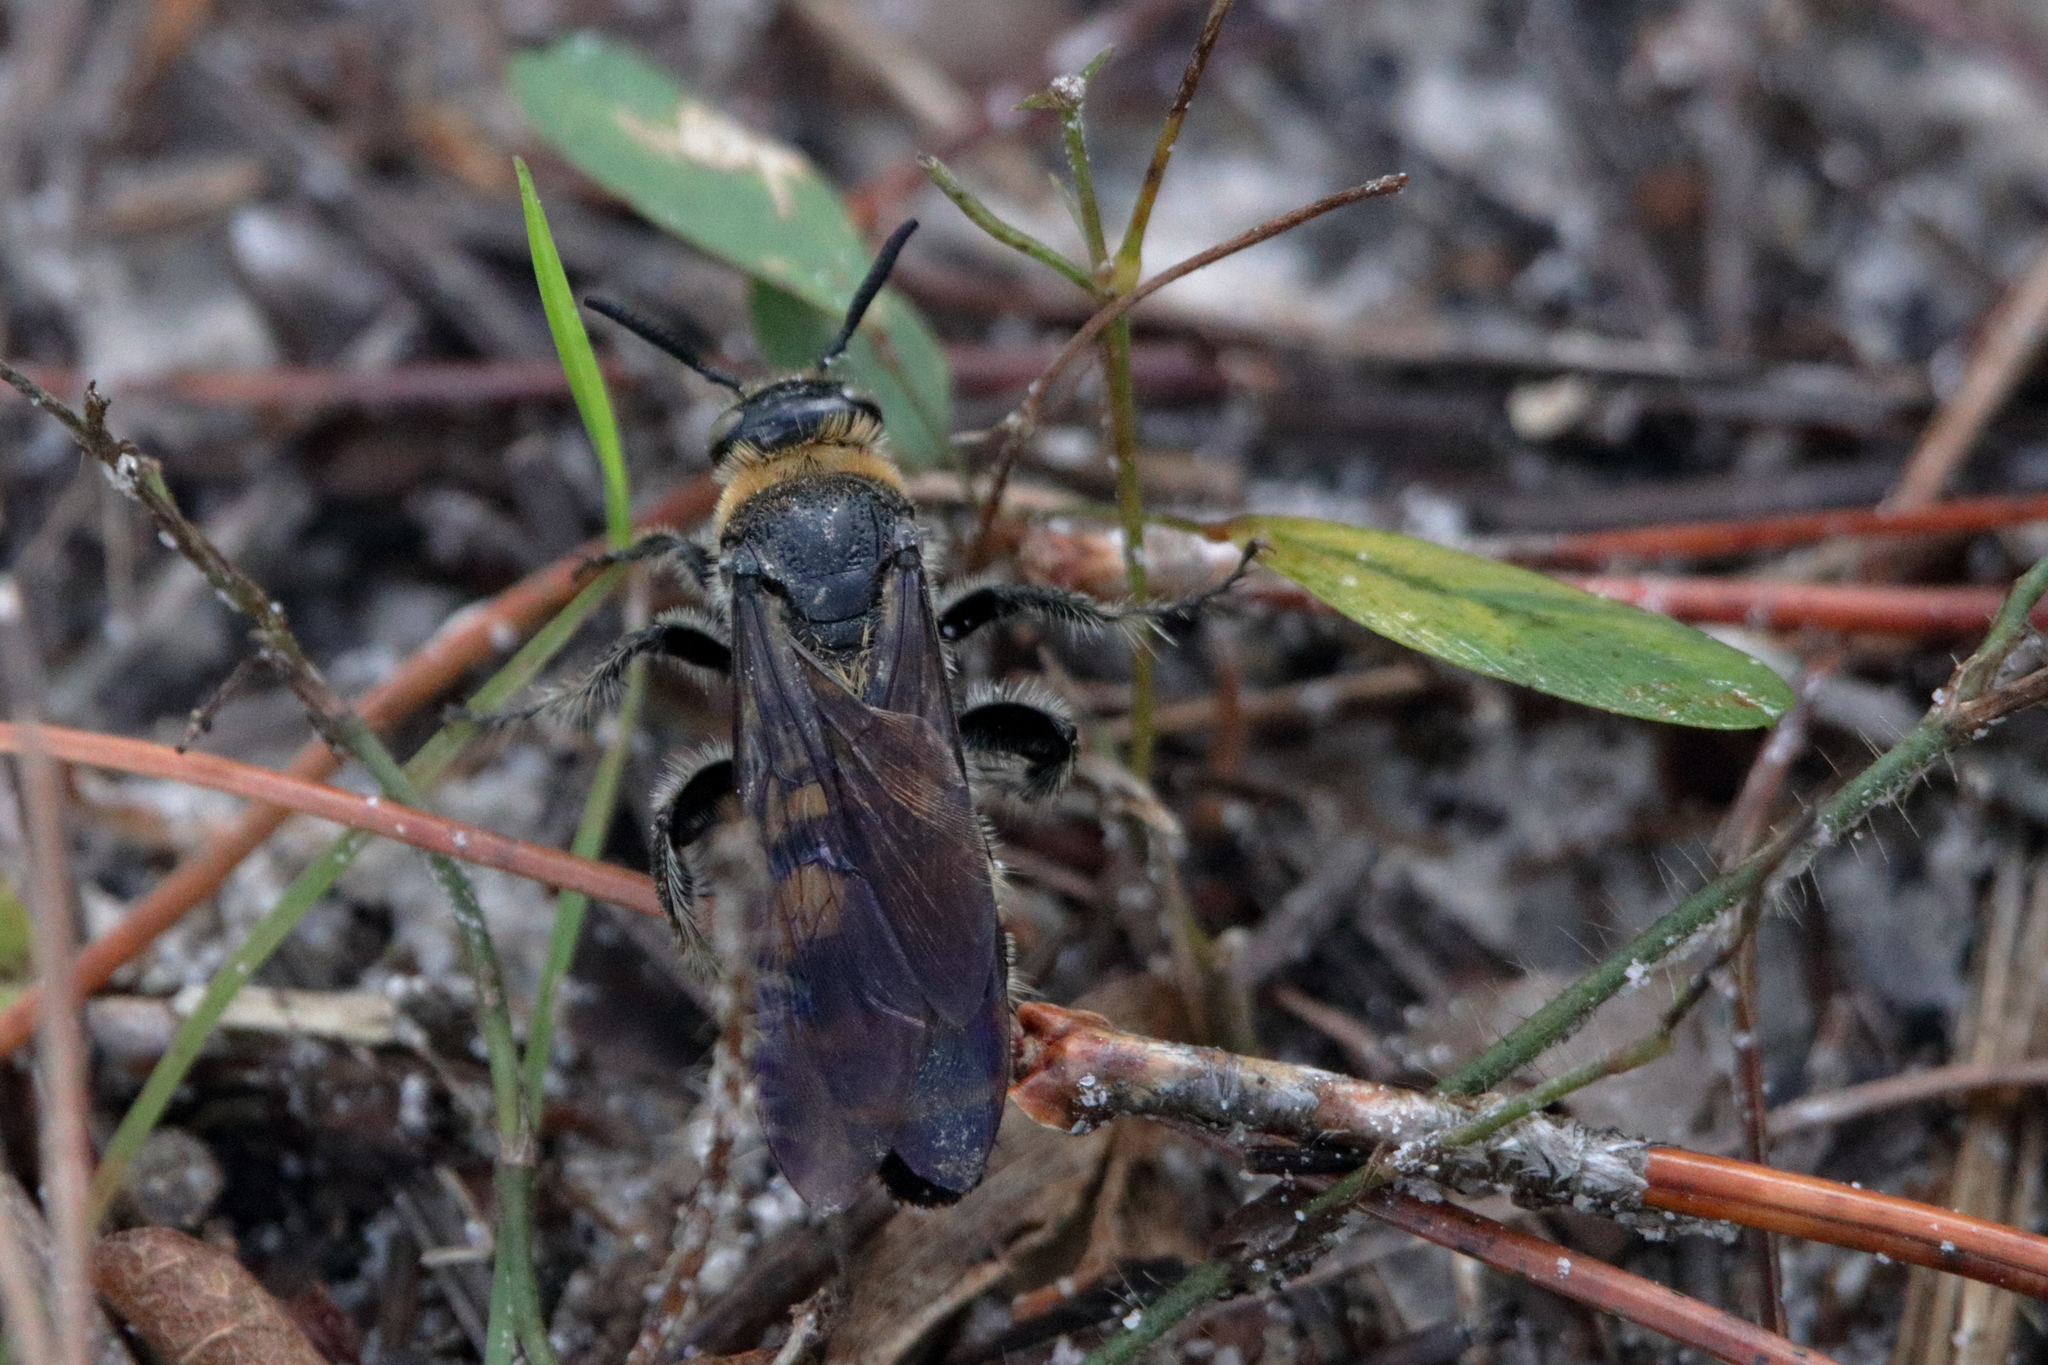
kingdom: Animalia
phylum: Arthropoda
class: Insecta
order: Hymenoptera
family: Scoliidae
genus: Dielis
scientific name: Dielis
